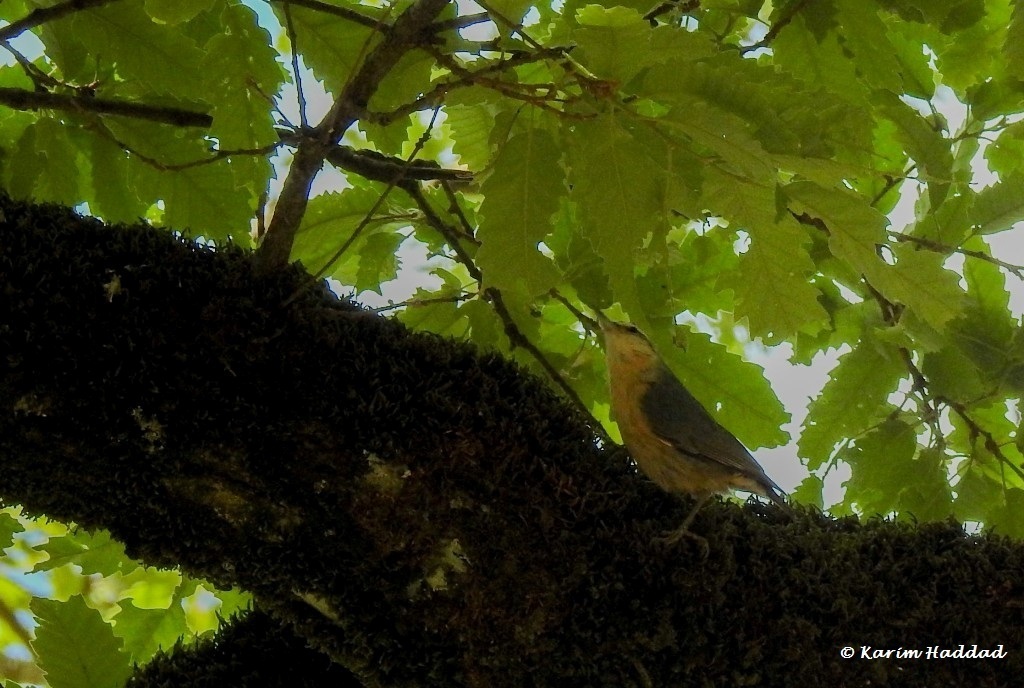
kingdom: Animalia
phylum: Chordata
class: Aves
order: Passeriformes
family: Sittidae
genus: Sitta
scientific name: Sitta ledanti
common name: Algerian nuthatch
